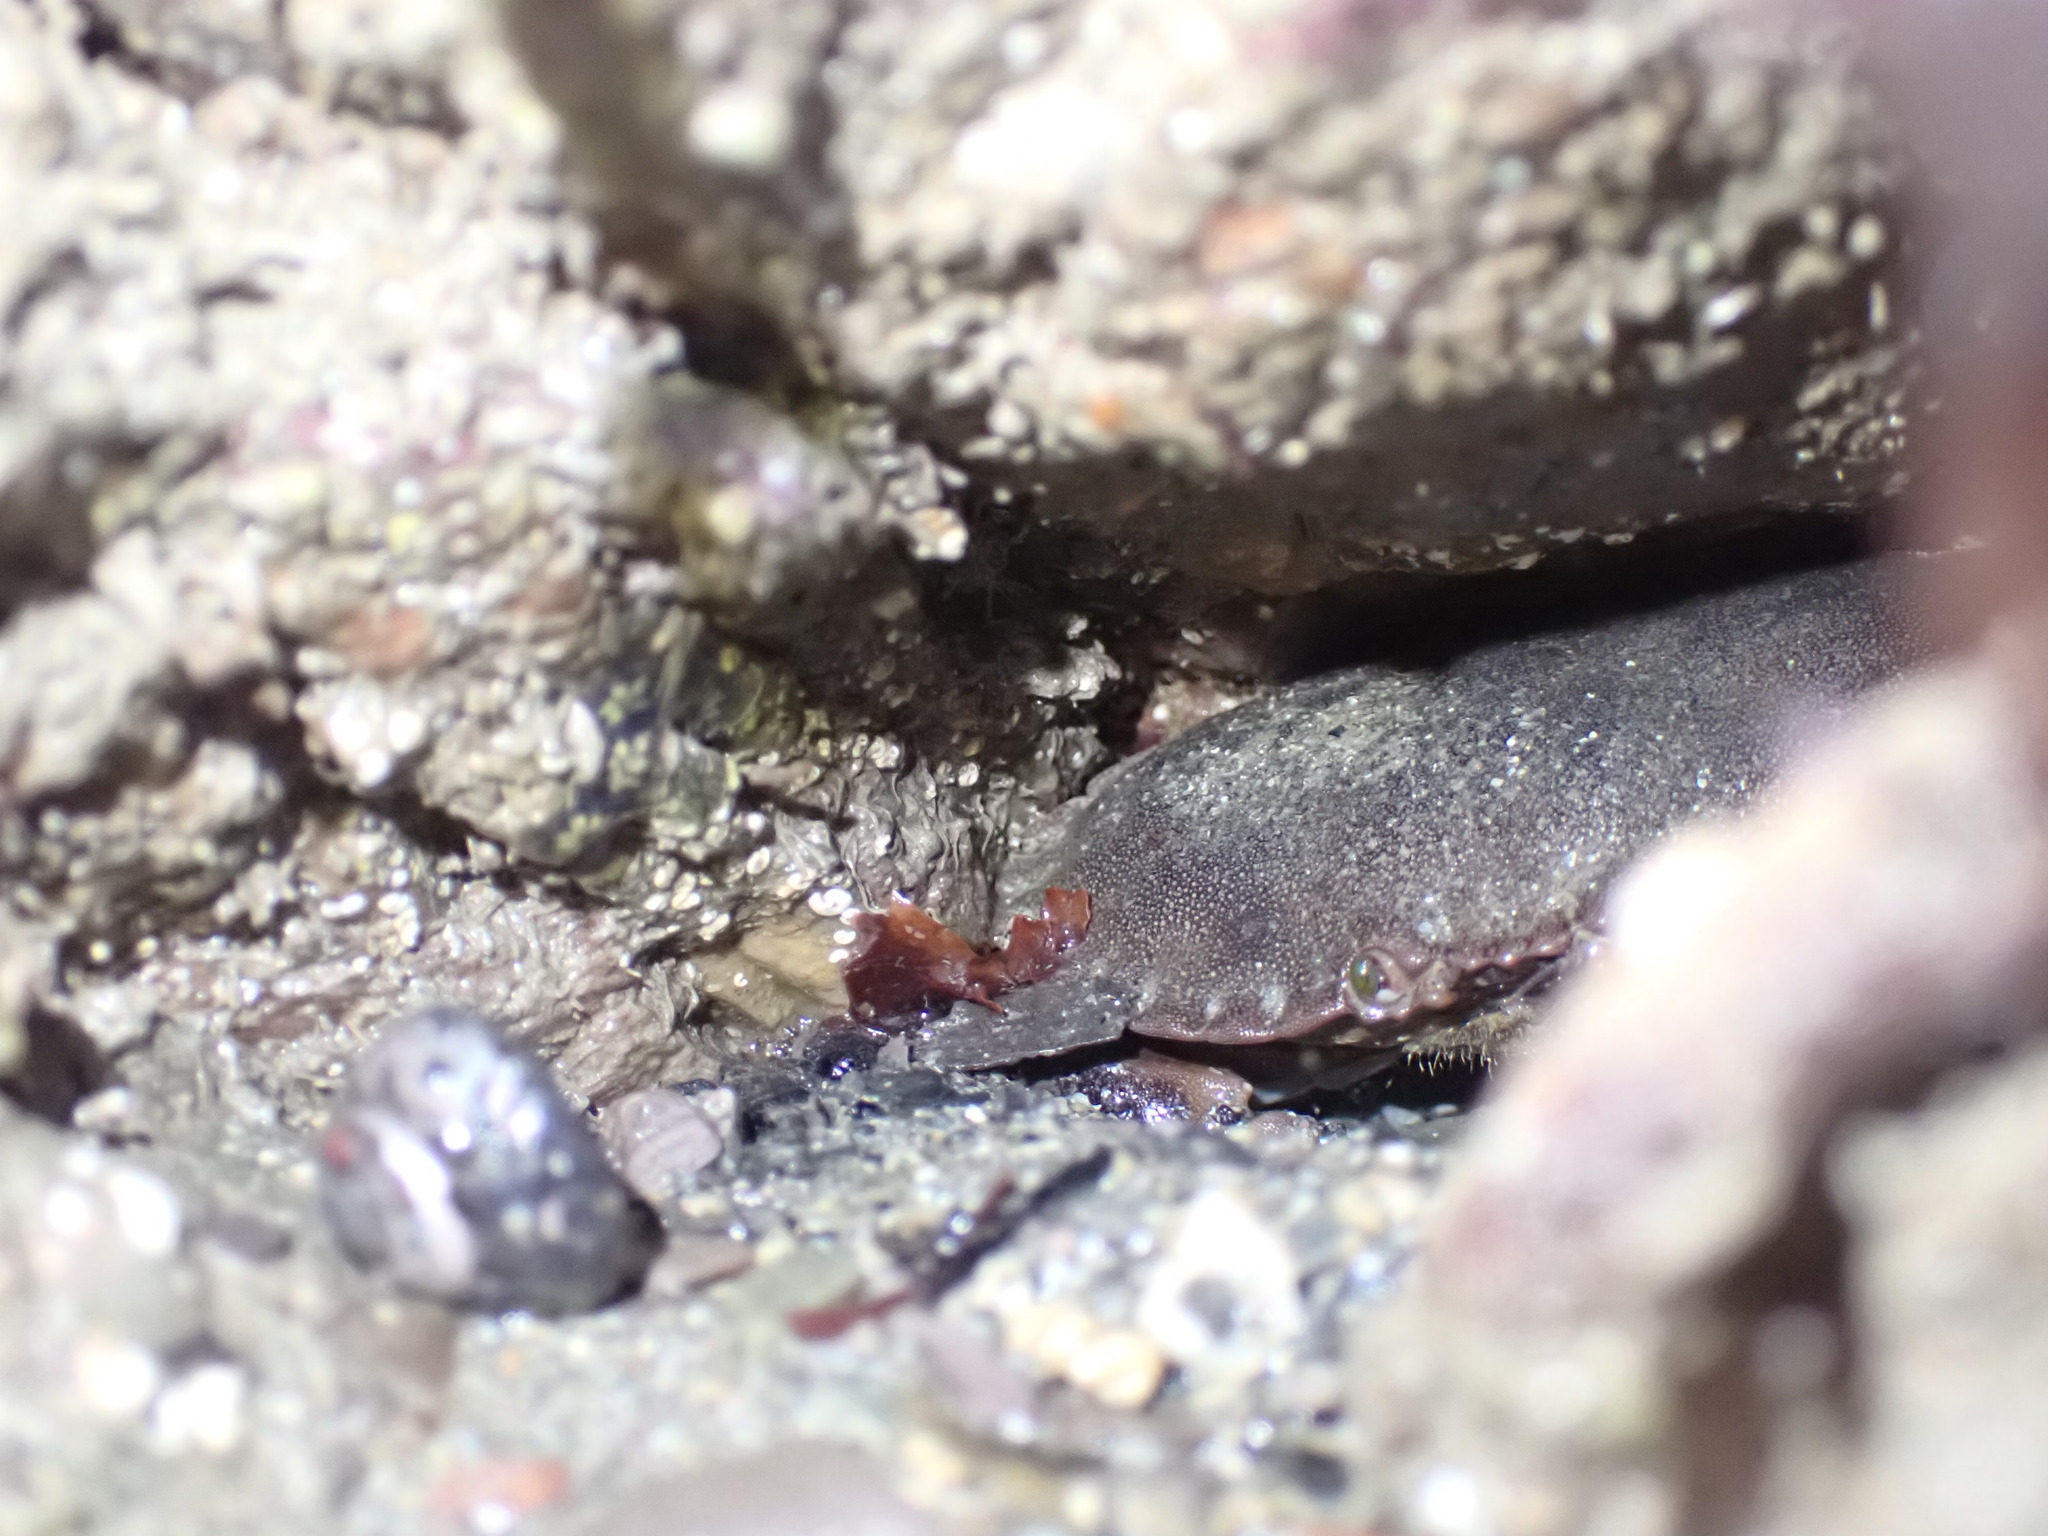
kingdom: Animalia
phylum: Arthropoda
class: Malacostraca
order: Decapoda
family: Cancridae
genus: Cancer
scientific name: Cancer pagurus
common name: Edible crab
